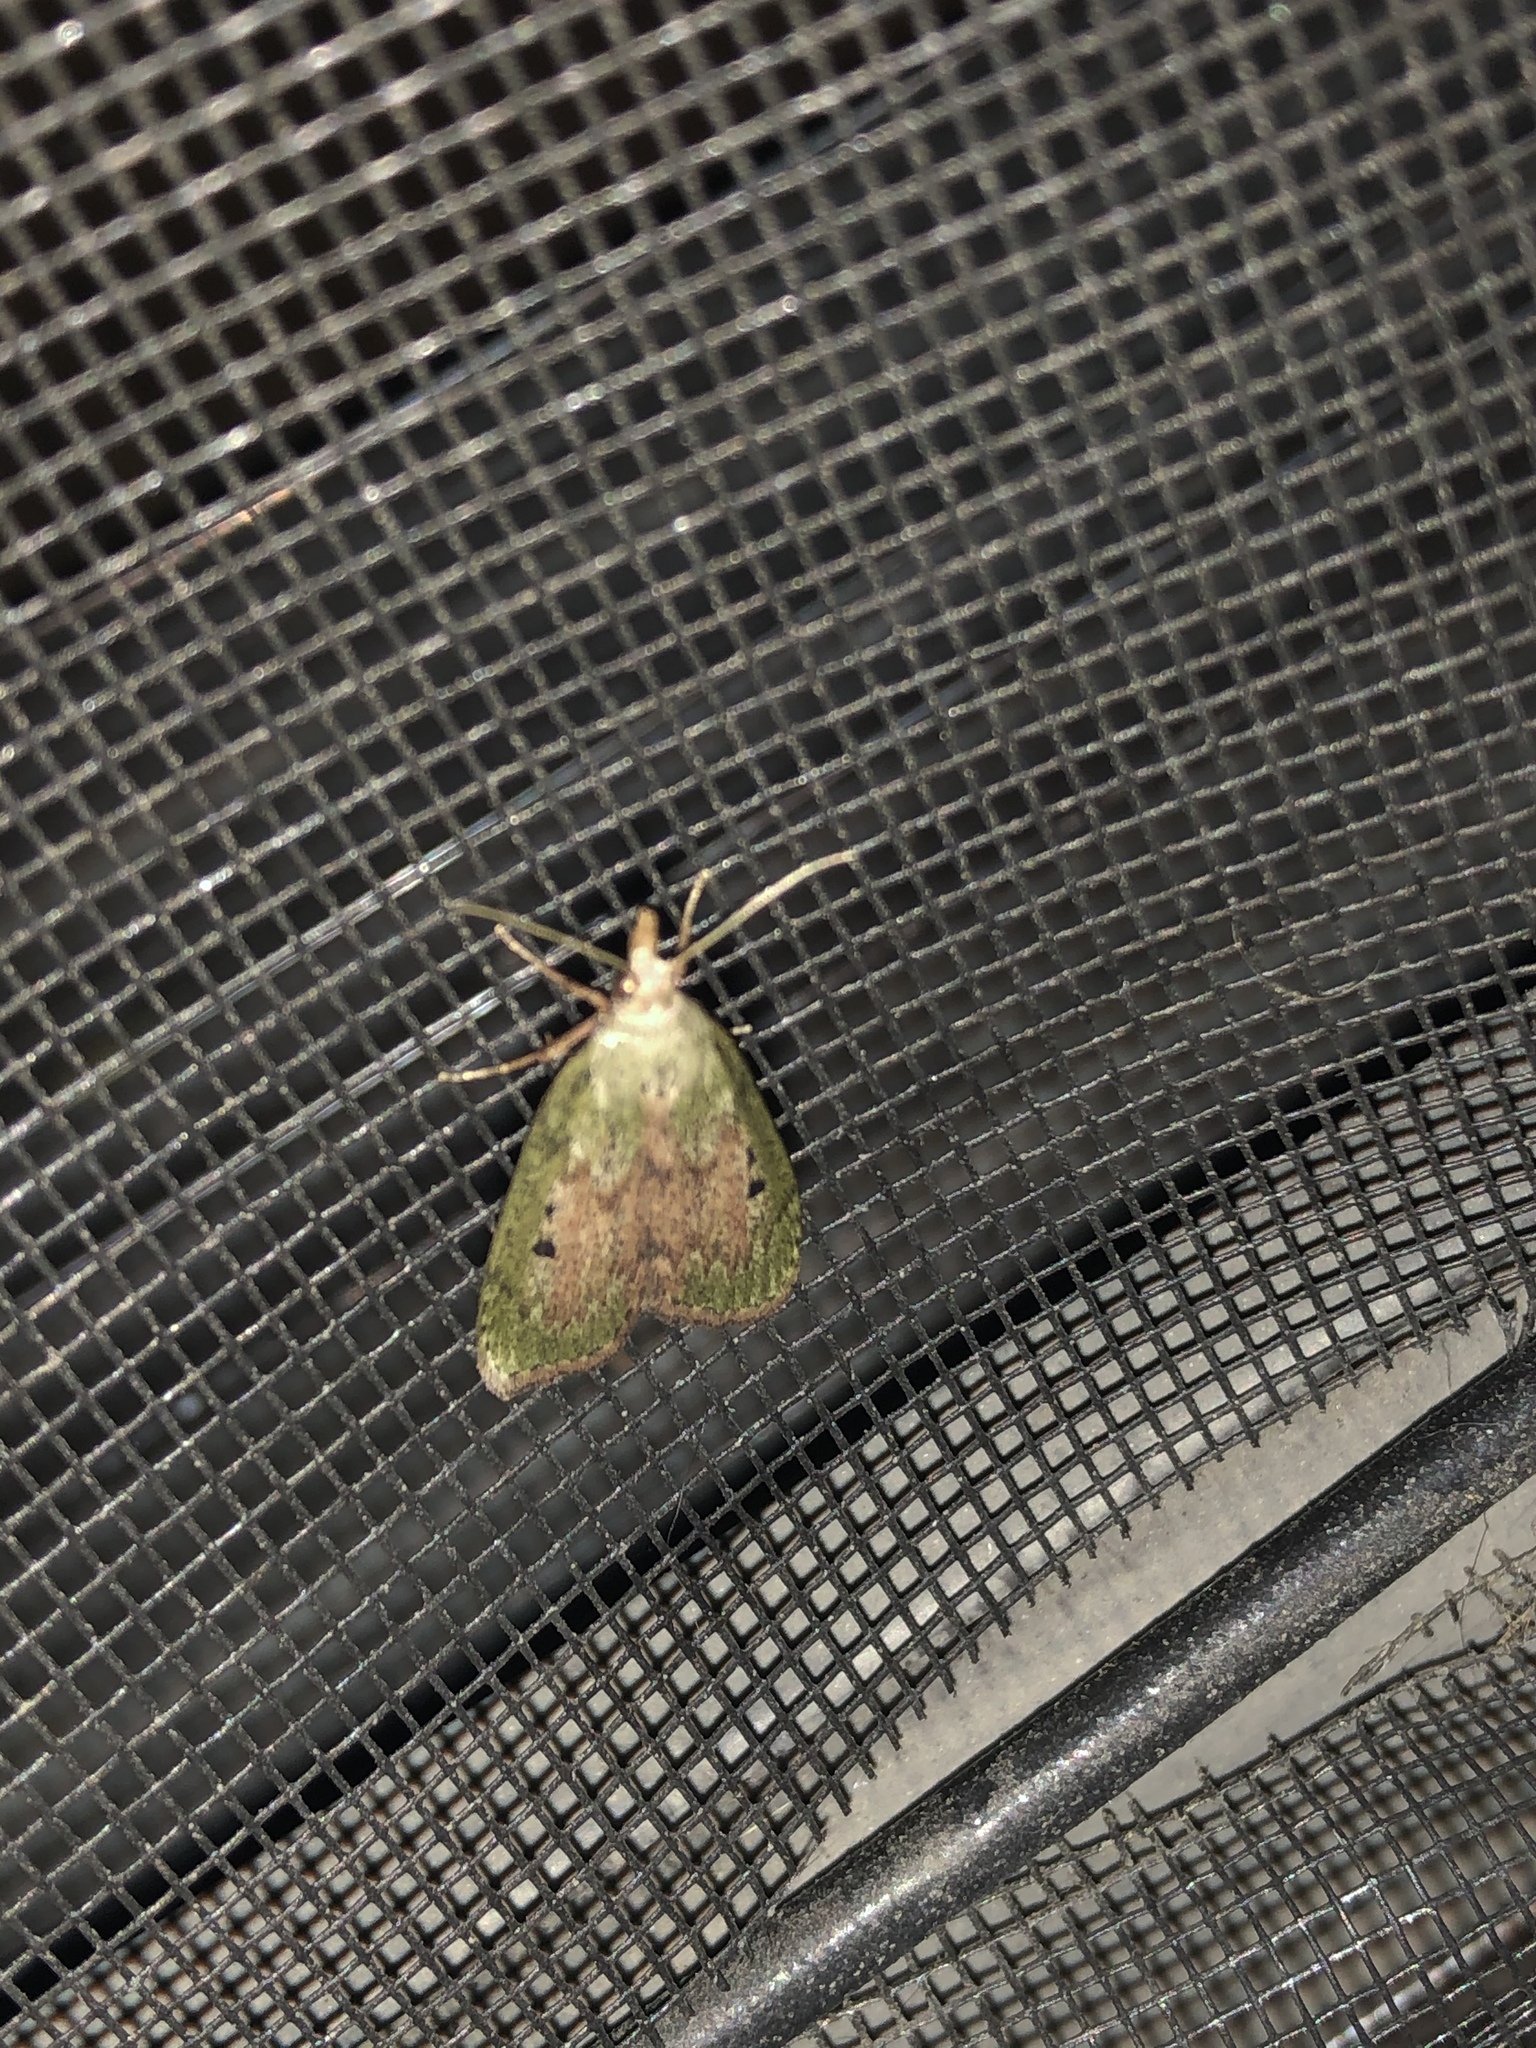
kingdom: Animalia
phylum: Arthropoda
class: Insecta
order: Lepidoptera
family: Pyralidae
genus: Aphomia
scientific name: Aphomia sociella
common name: Bee moth
